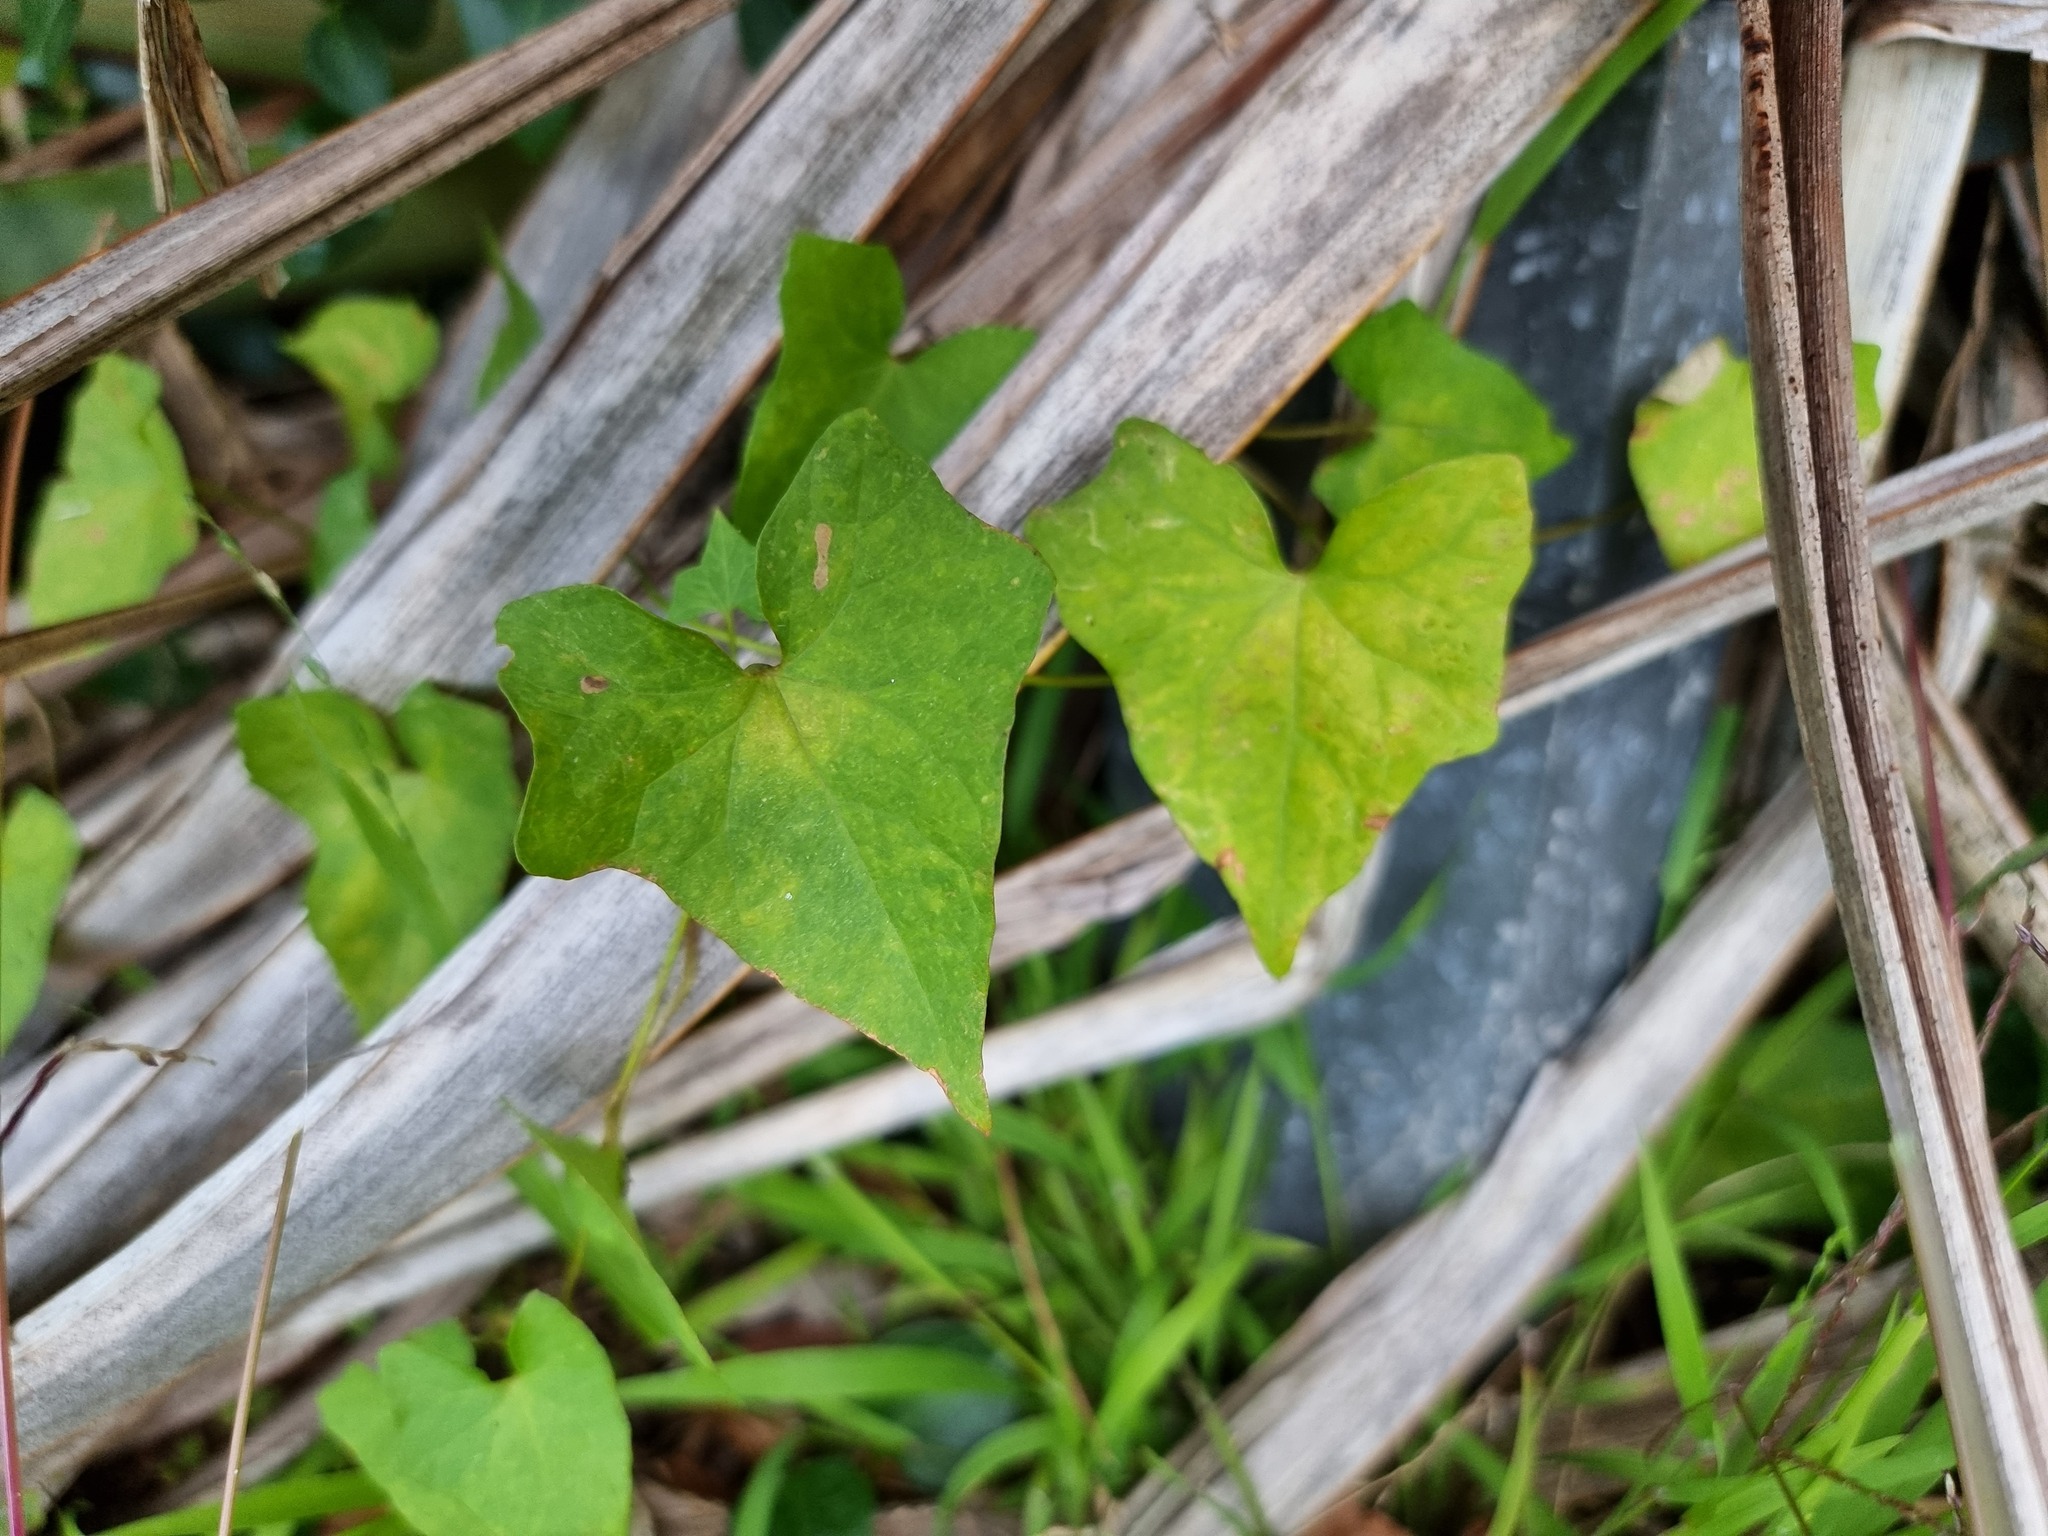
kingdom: Plantae
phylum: Tracheophyta
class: Magnoliopsida
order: Solanales
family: Convolvulaceae
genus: Calystegia
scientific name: Calystegia tuguriorum
